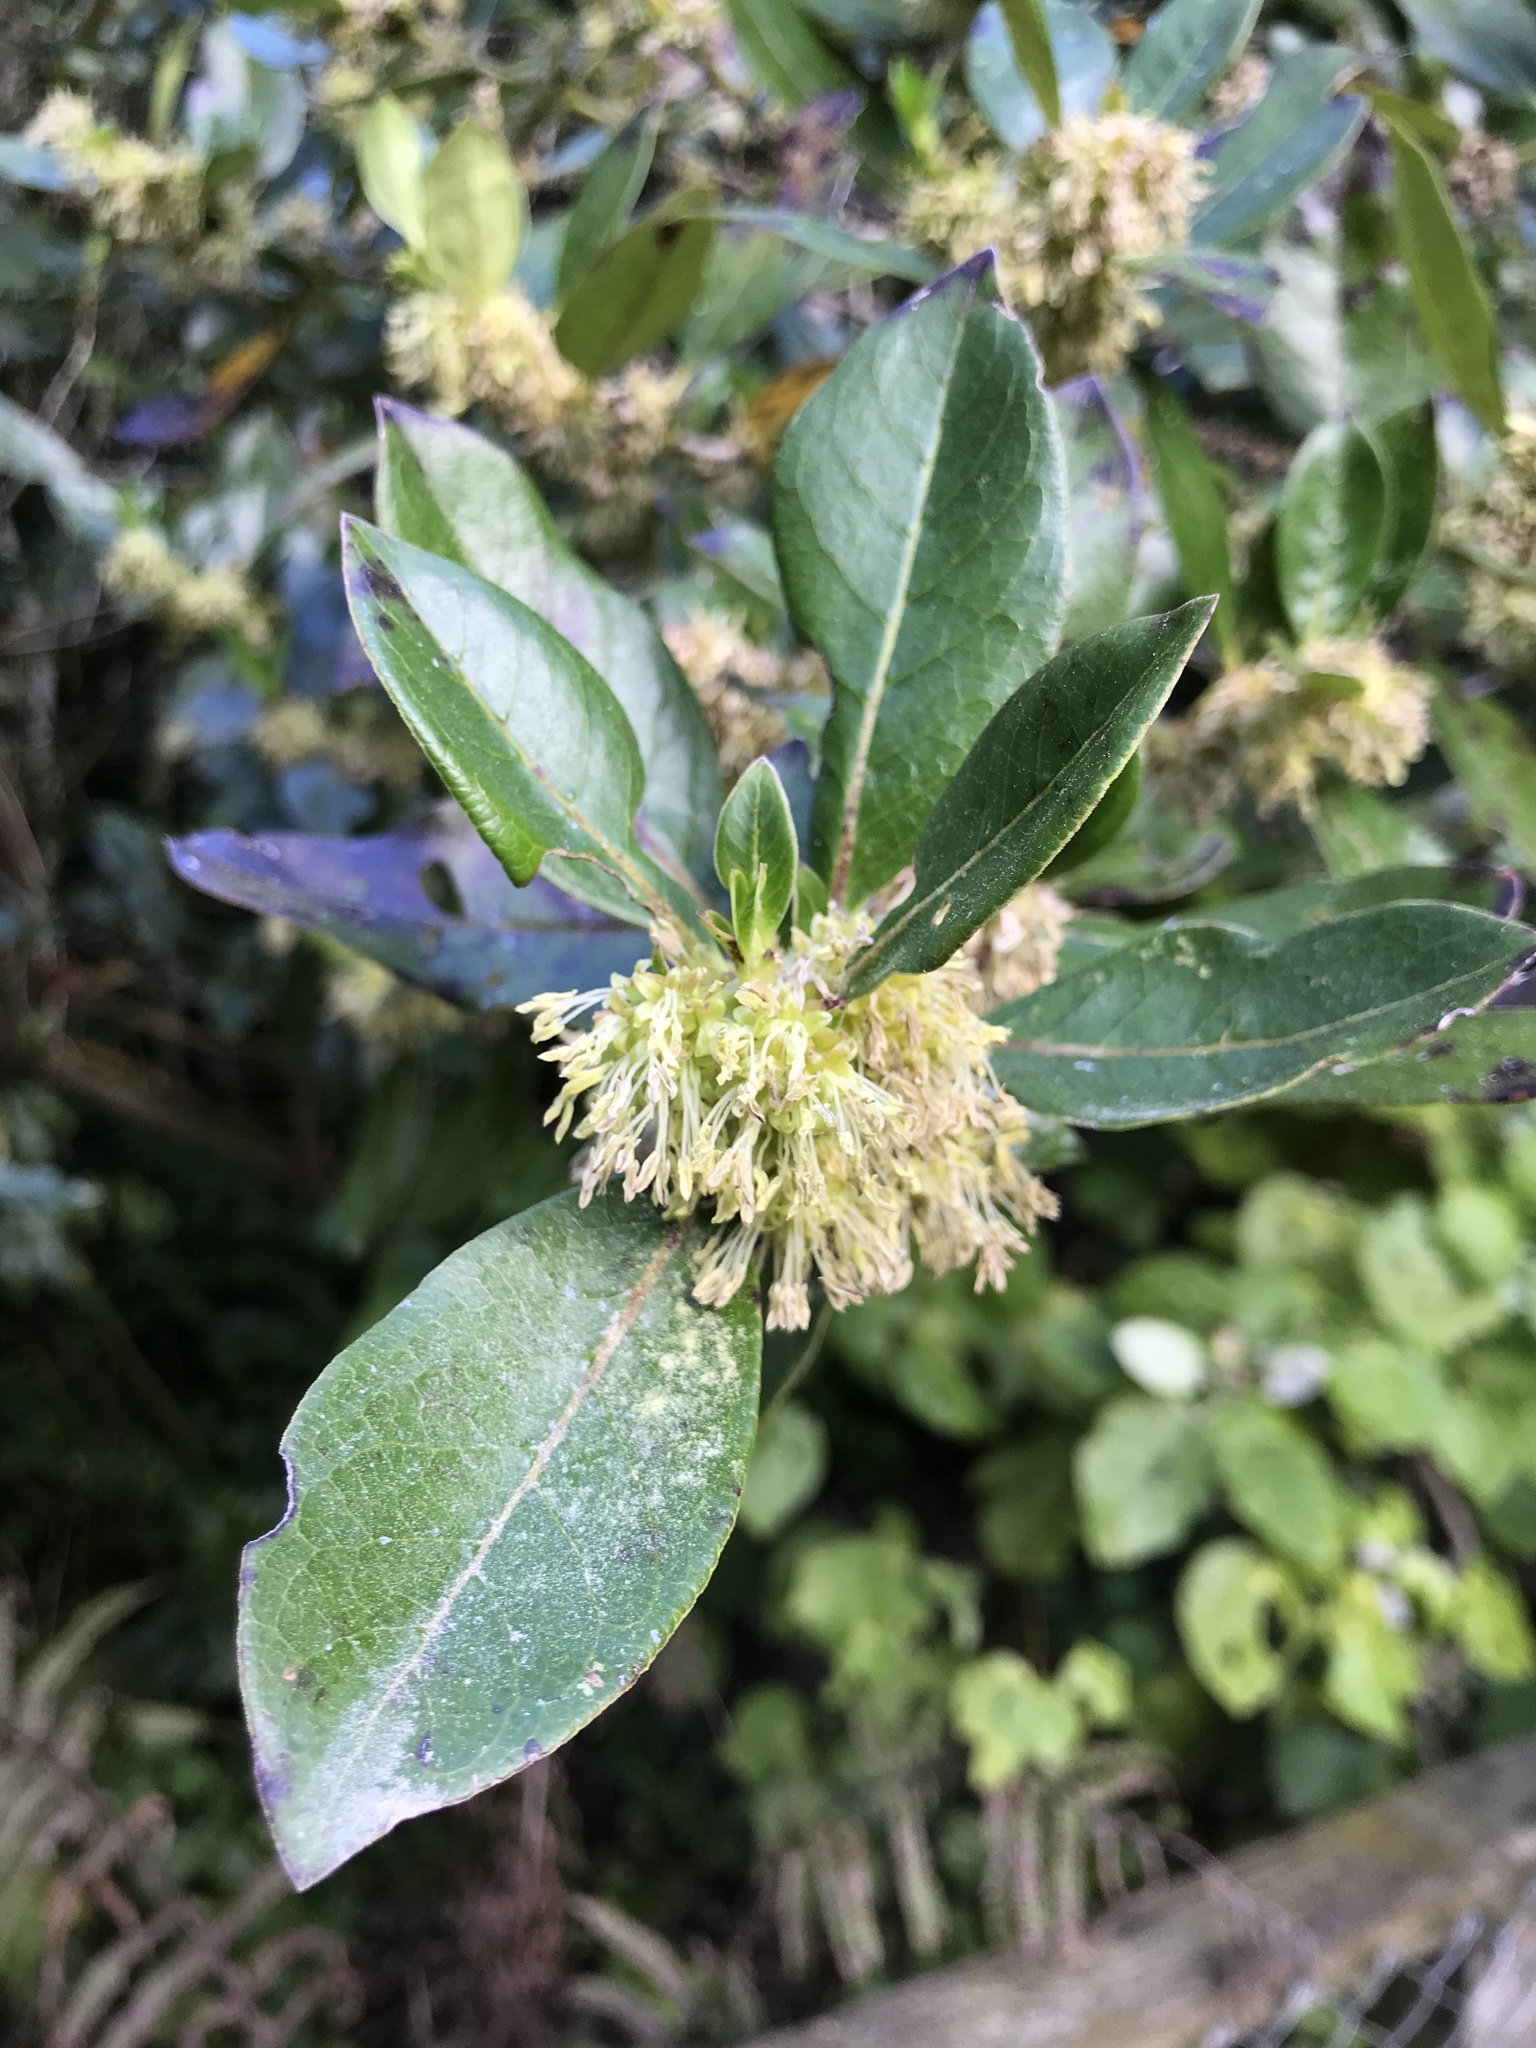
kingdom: Plantae
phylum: Tracheophyta
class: Magnoliopsida
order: Gentianales
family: Rubiaceae
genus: Coprosma
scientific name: Coprosma robusta
